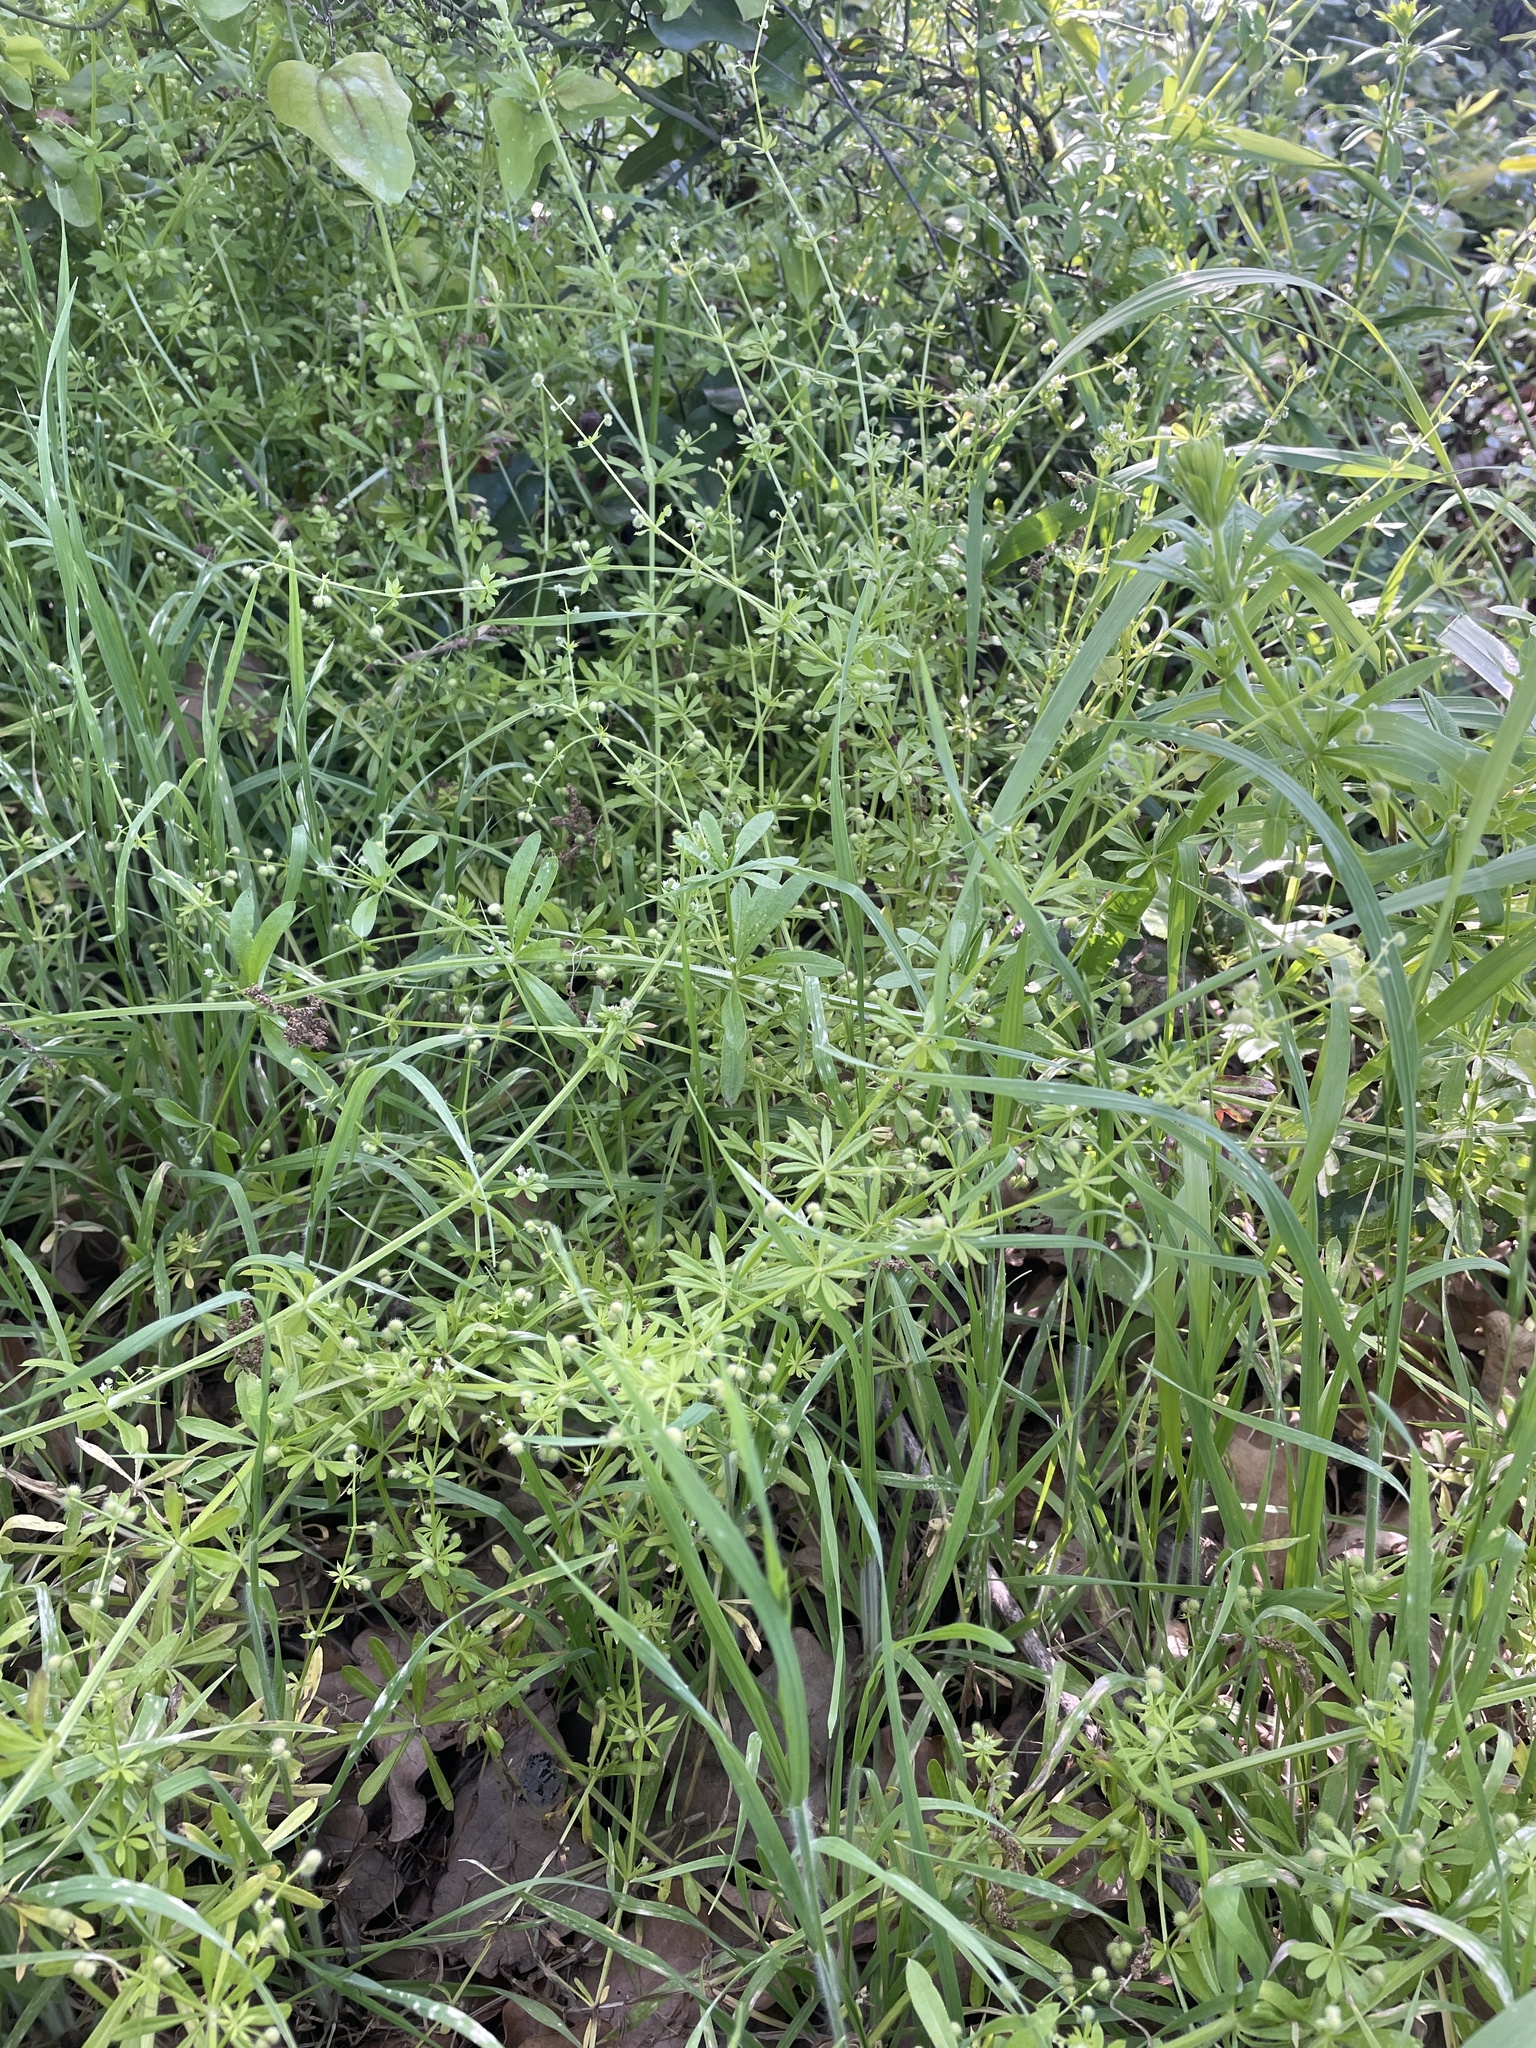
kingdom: Plantae
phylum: Tracheophyta
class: Magnoliopsida
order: Gentianales
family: Rubiaceae
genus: Galium
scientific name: Galium aparine
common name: Cleavers
